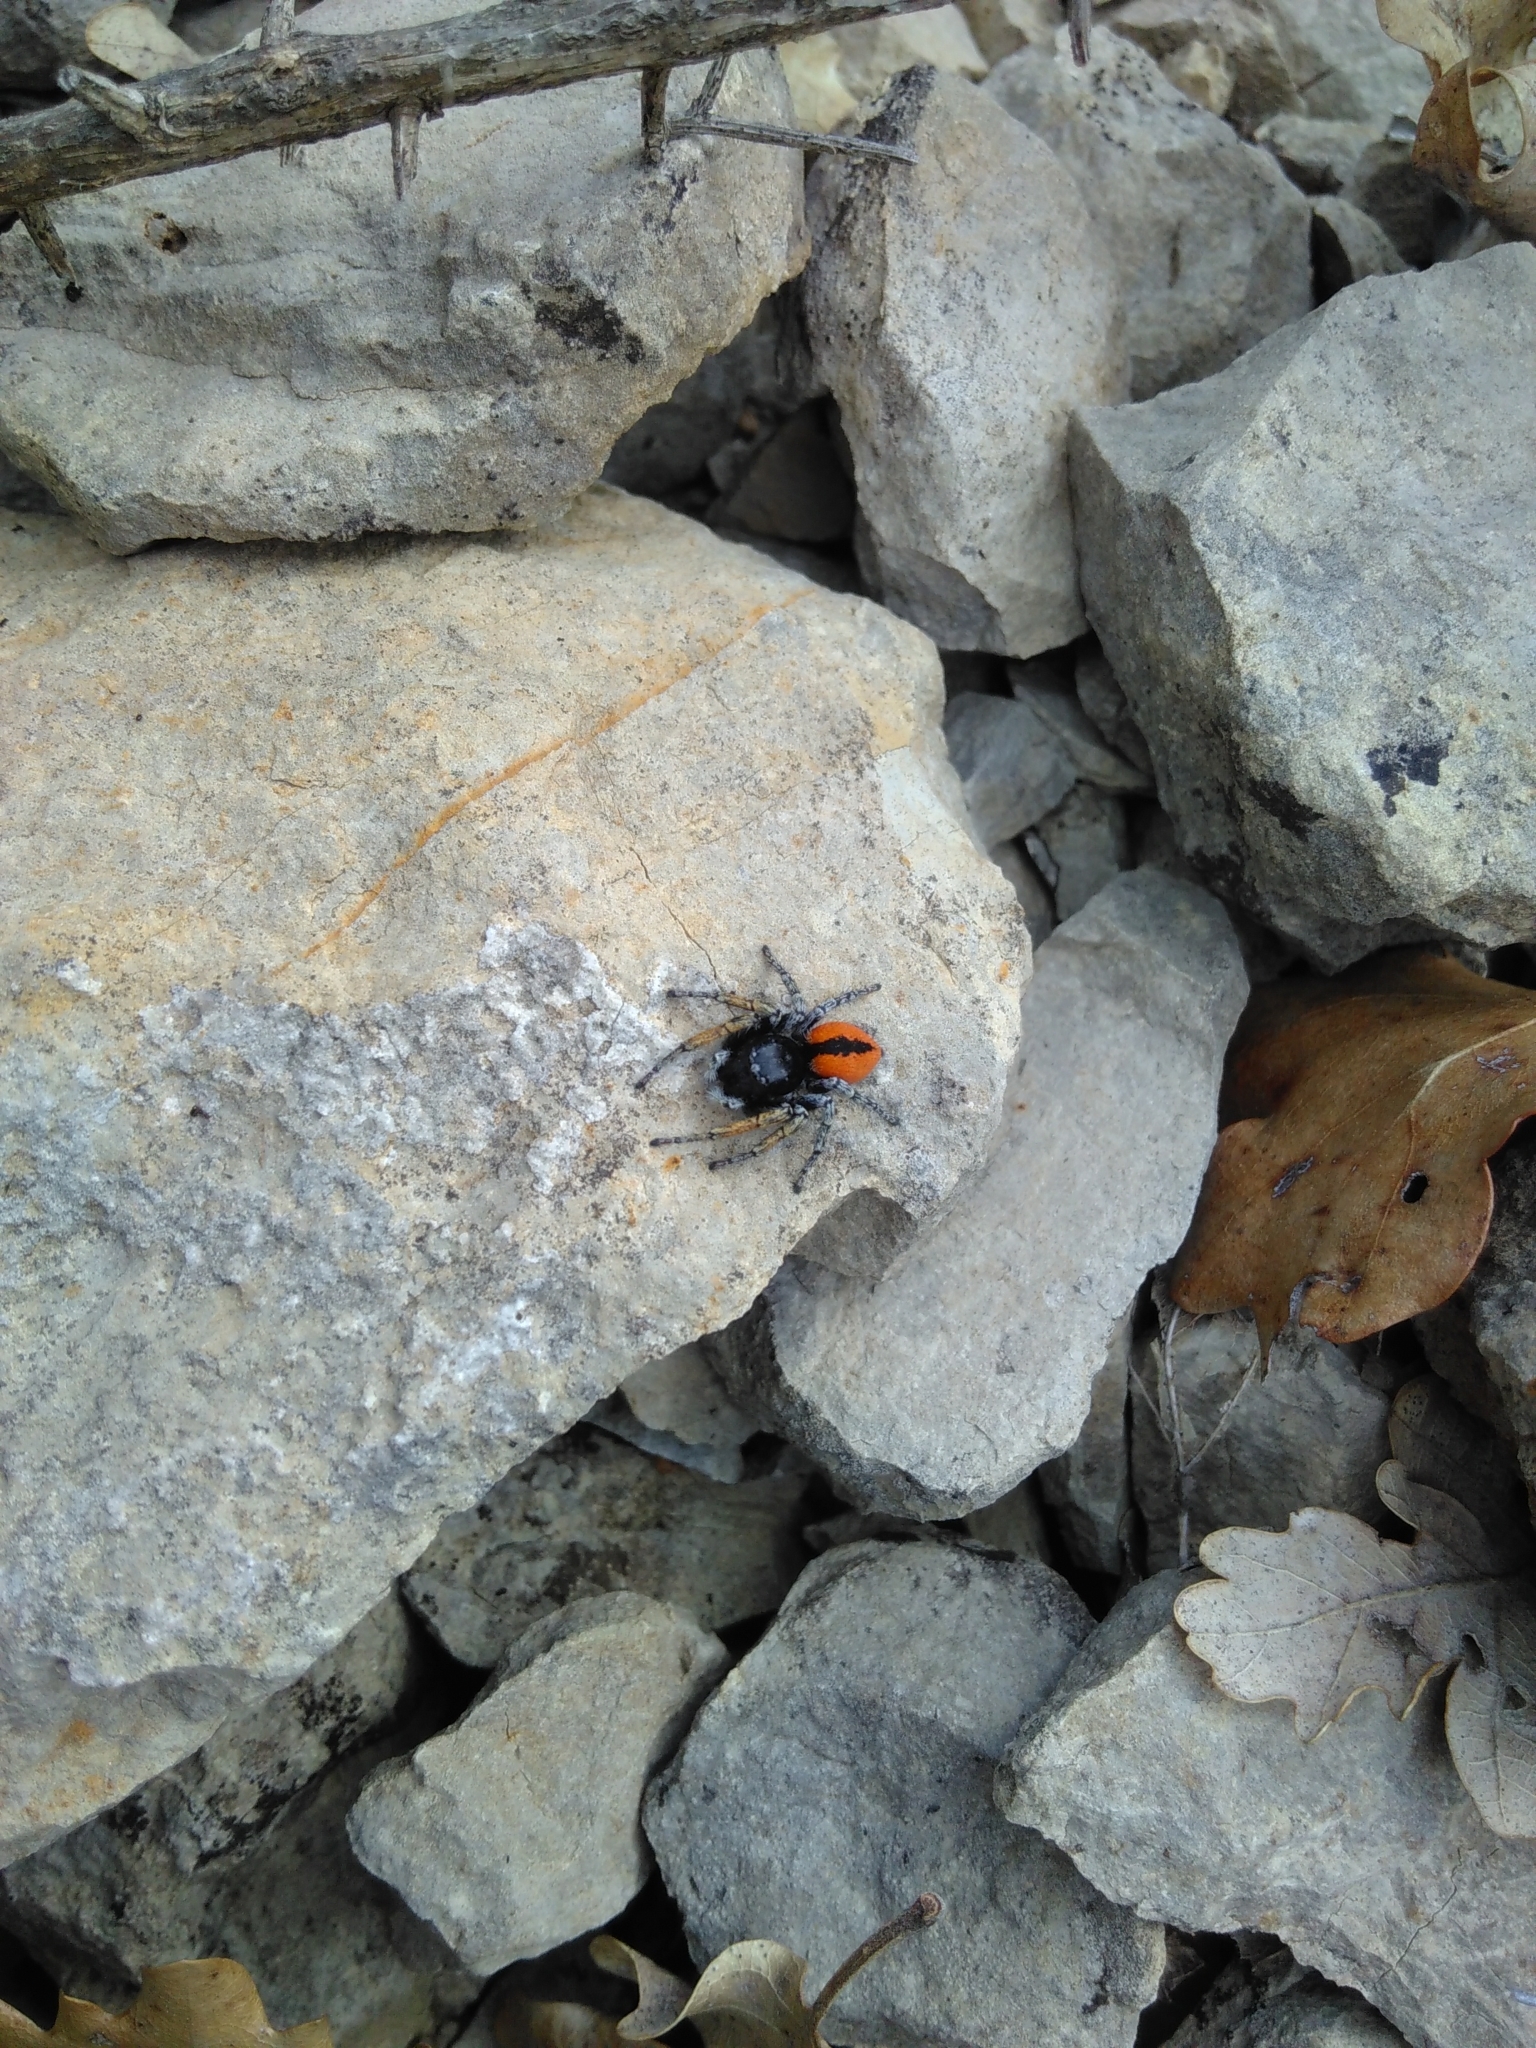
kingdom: Animalia
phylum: Arthropoda
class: Arachnida
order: Araneae
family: Salticidae
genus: Philaeus
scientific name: Philaeus chrysops
